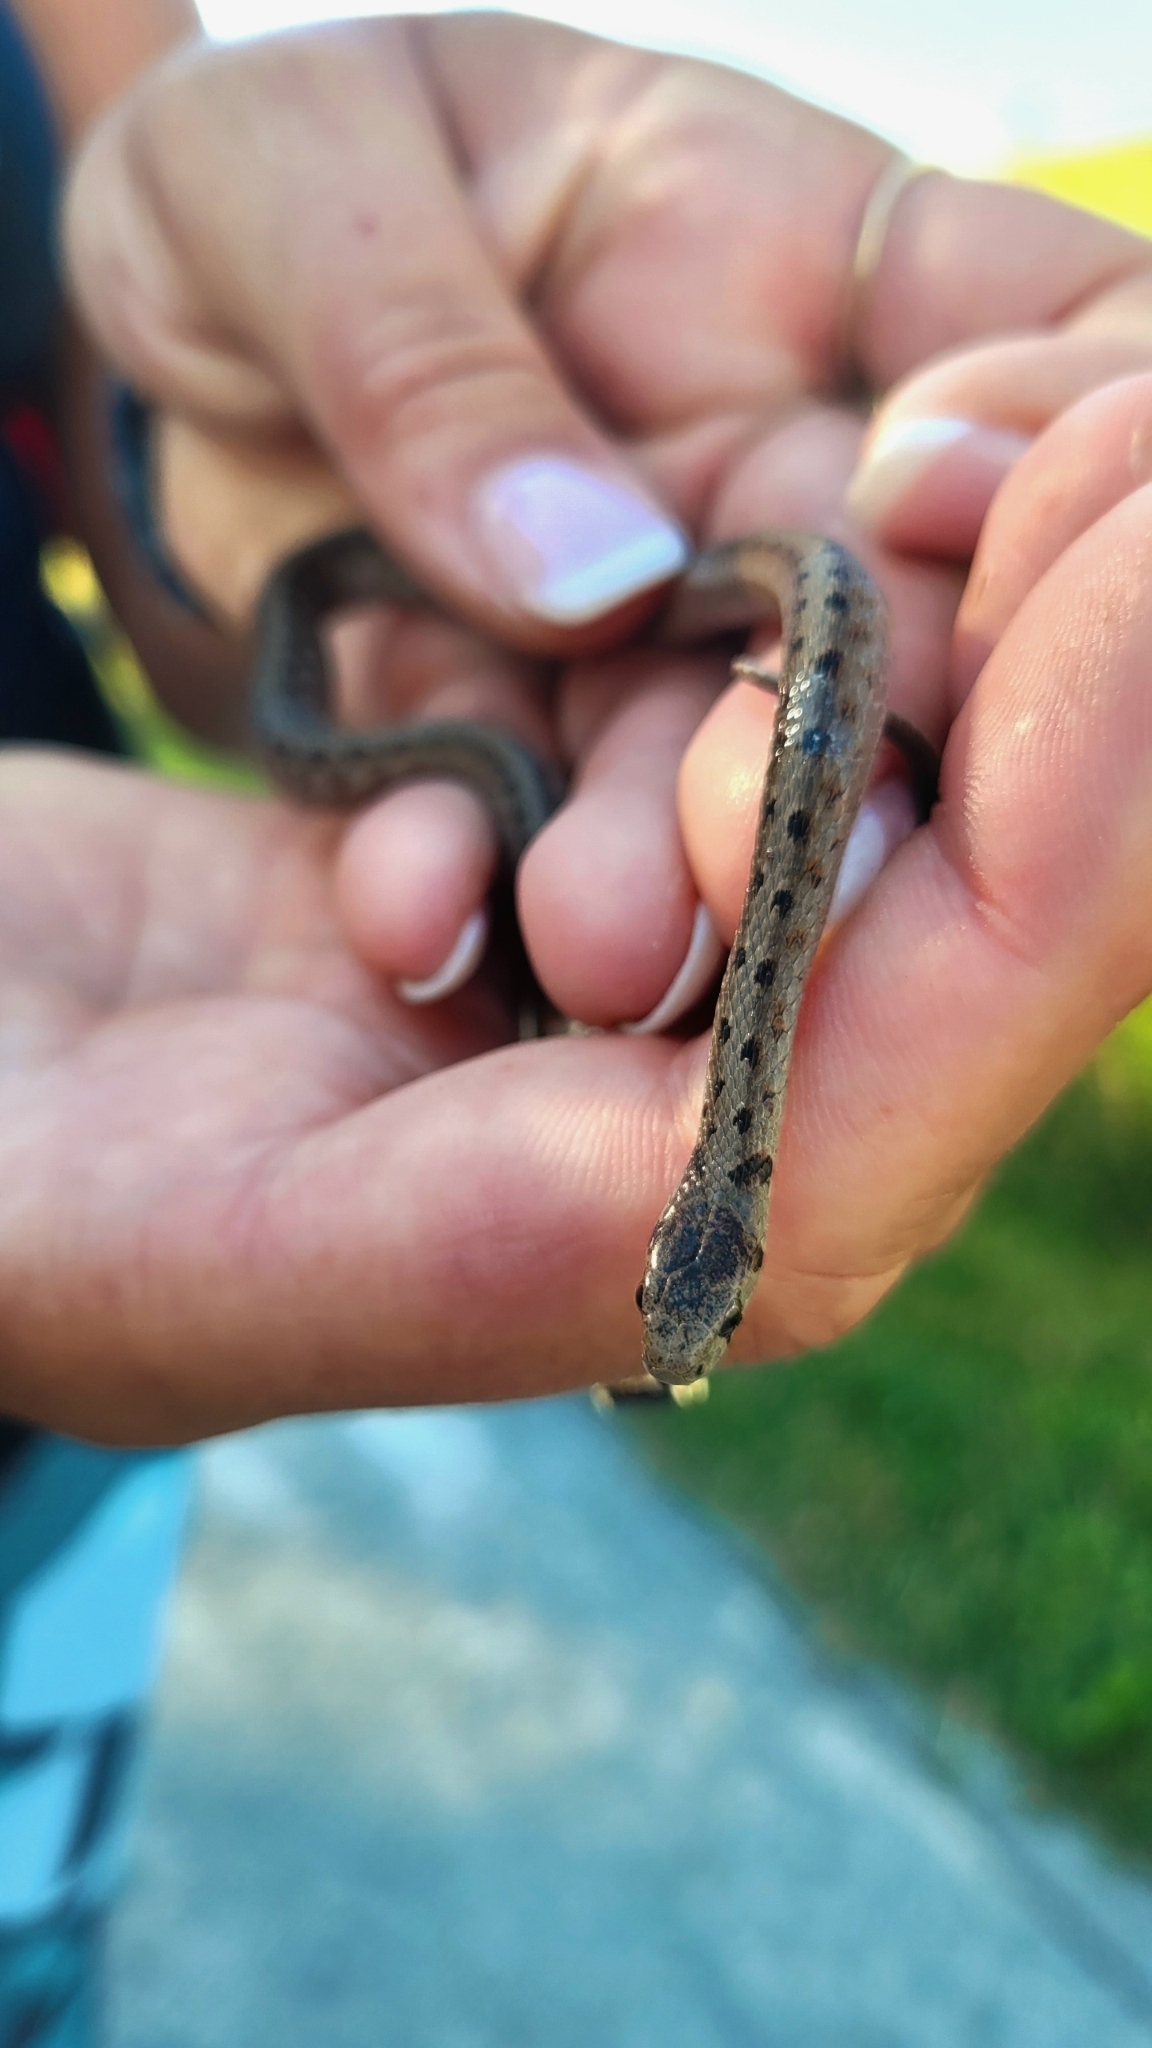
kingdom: Animalia
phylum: Chordata
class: Squamata
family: Colubridae
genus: Storeria
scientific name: Storeria dekayi
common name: (dekay’s) brown snake
